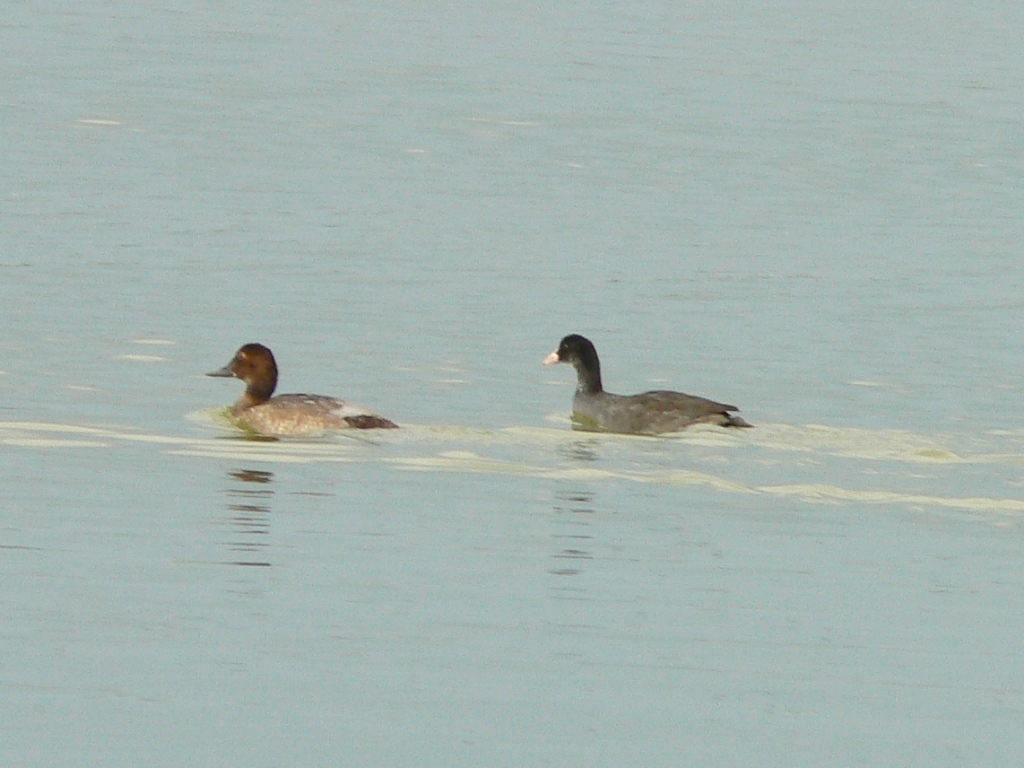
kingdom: Animalia
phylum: Chordata
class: Aves
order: Anseriformes
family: Anatidae
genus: Aythya
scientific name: Aythya ferina
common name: Common pochard
